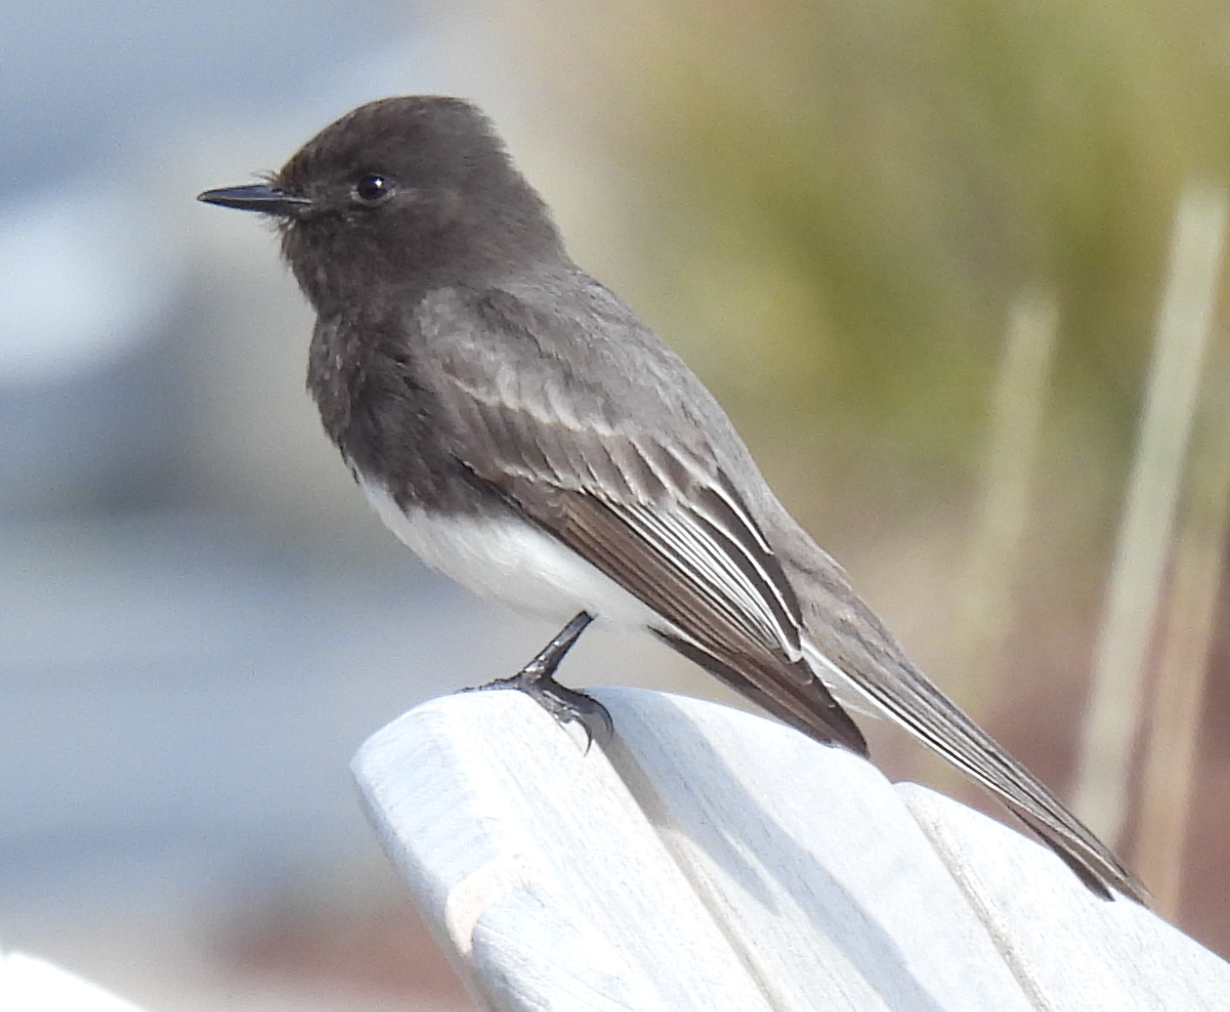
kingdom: Animalia
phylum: Chordata
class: Aves
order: Passeriformes
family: Tyrannidae
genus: Sayornis
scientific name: Sayornis nigricans
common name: Black phoebe
